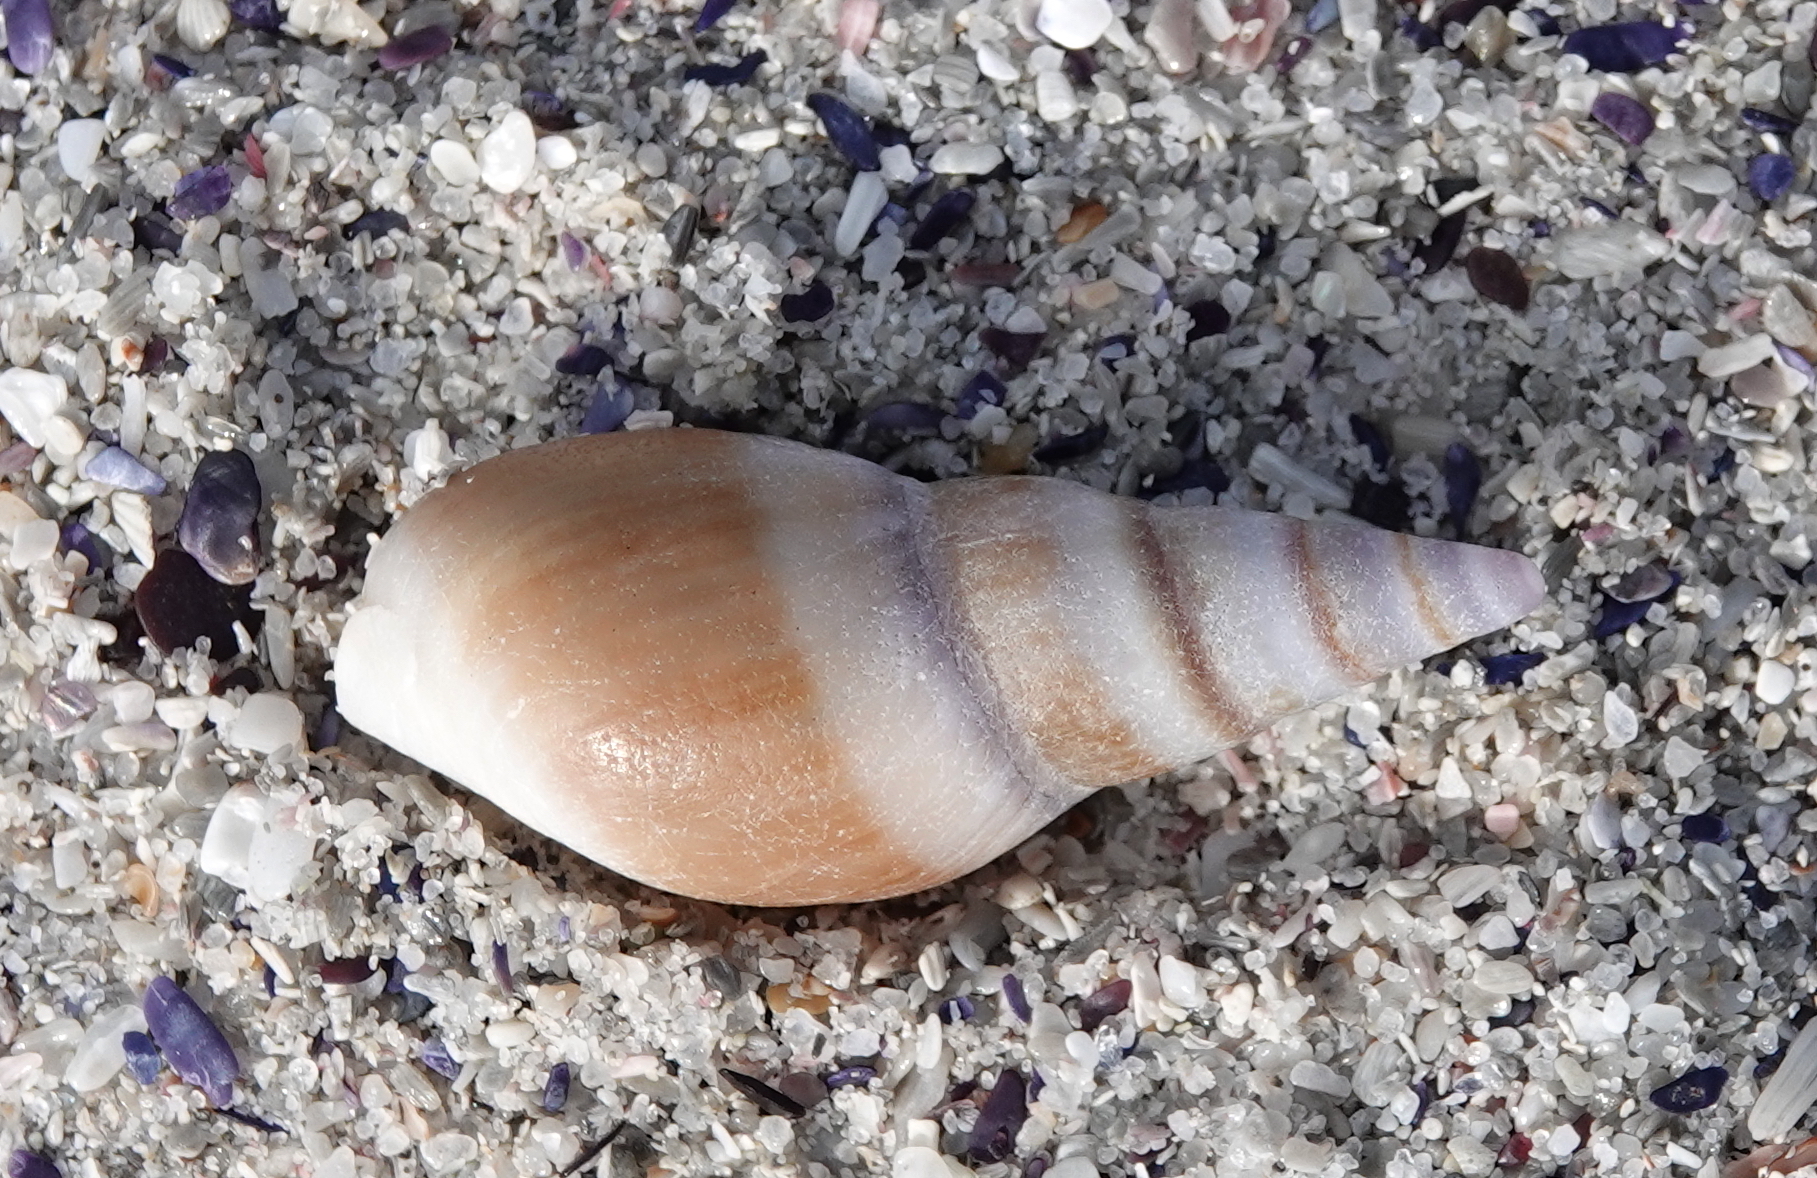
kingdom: Animalia
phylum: Mollusca
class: Gastropoda
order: Neogastropoda
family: Nassariidae
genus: Bullia
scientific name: Bullia rhodostoma
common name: Smooth plough shell
